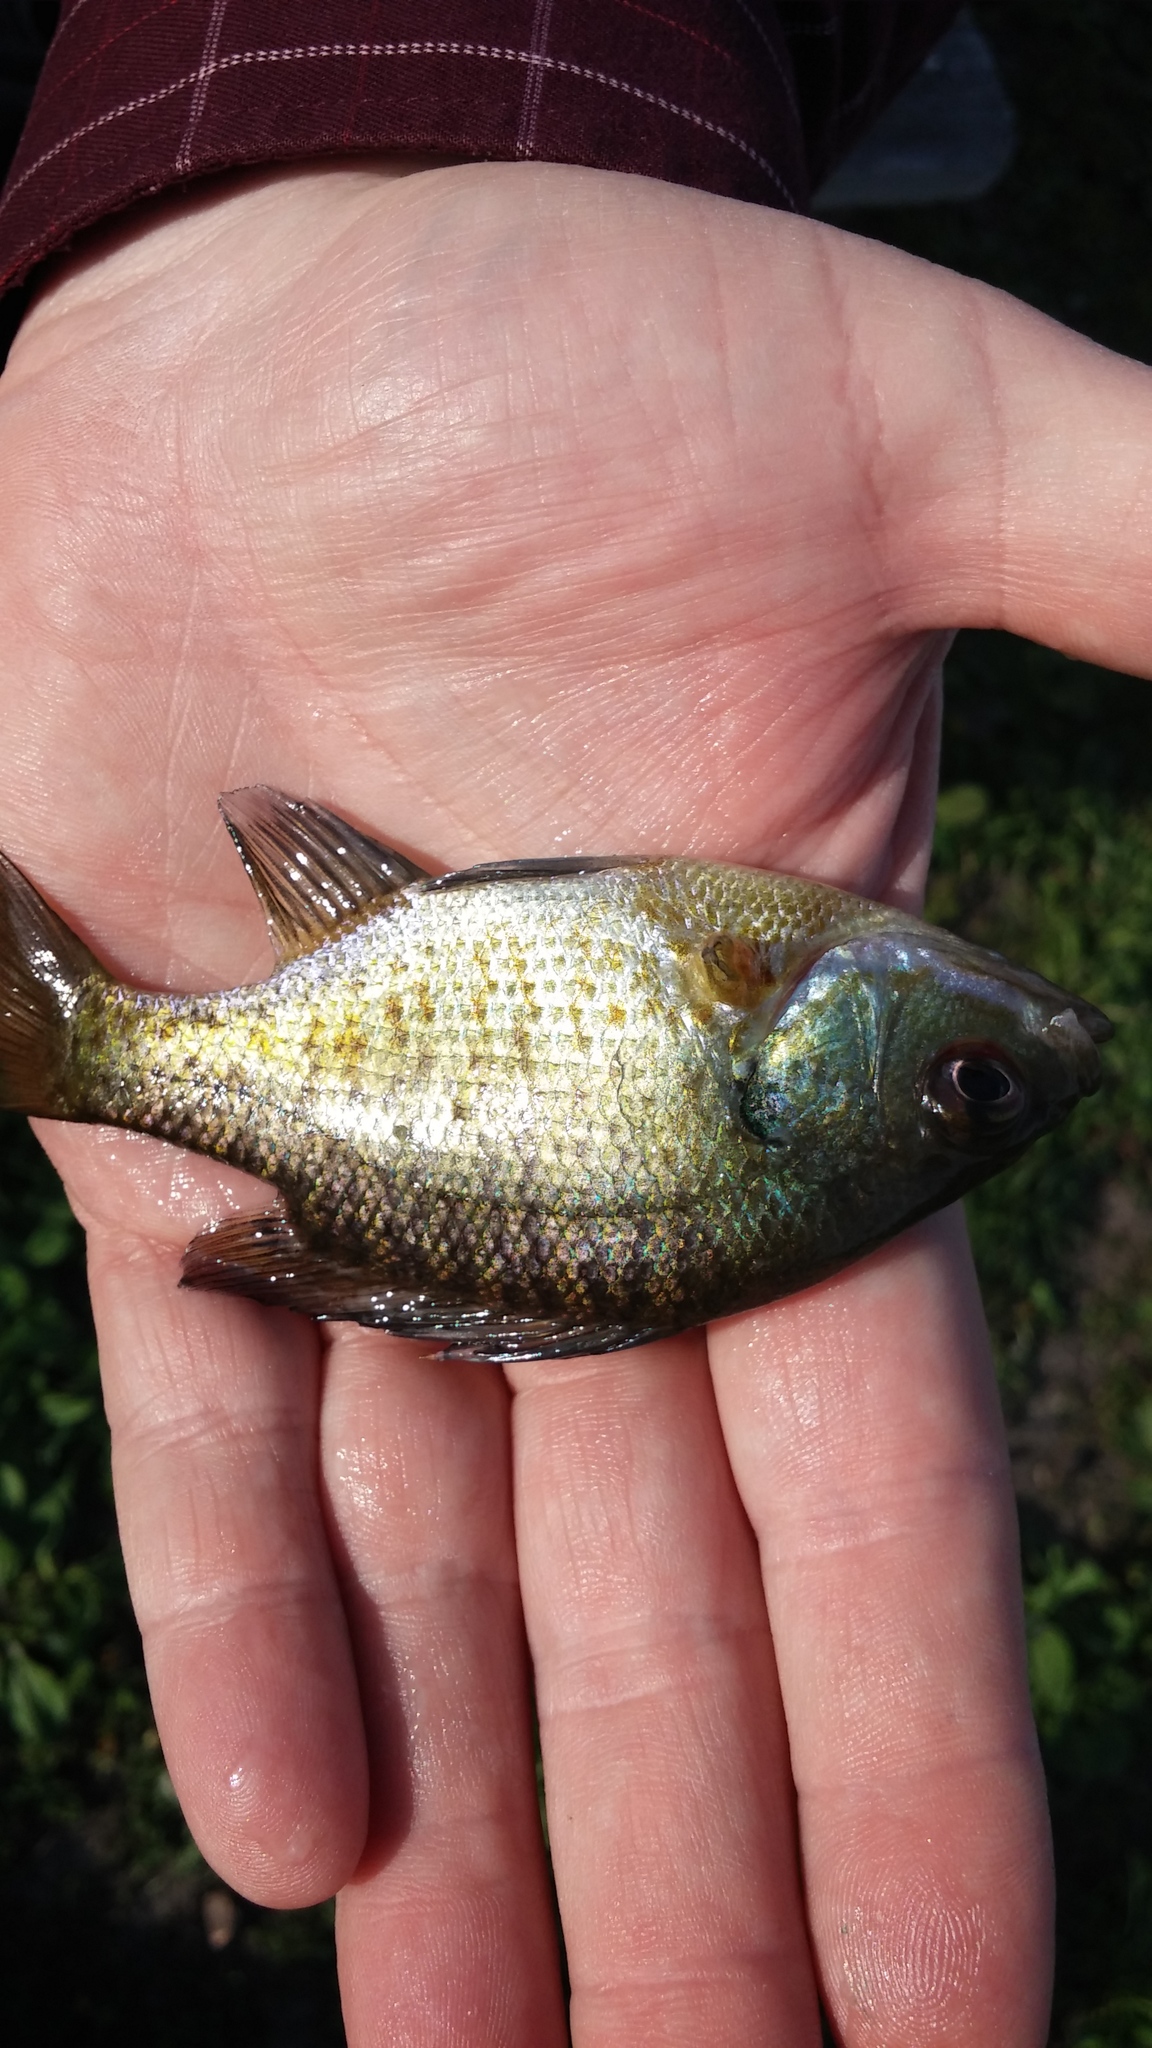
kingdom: Animalia
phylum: Chordata
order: Perciformes
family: Centrarchidae
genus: Lepomis
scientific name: Lepomis macrochirus
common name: Bluegill
